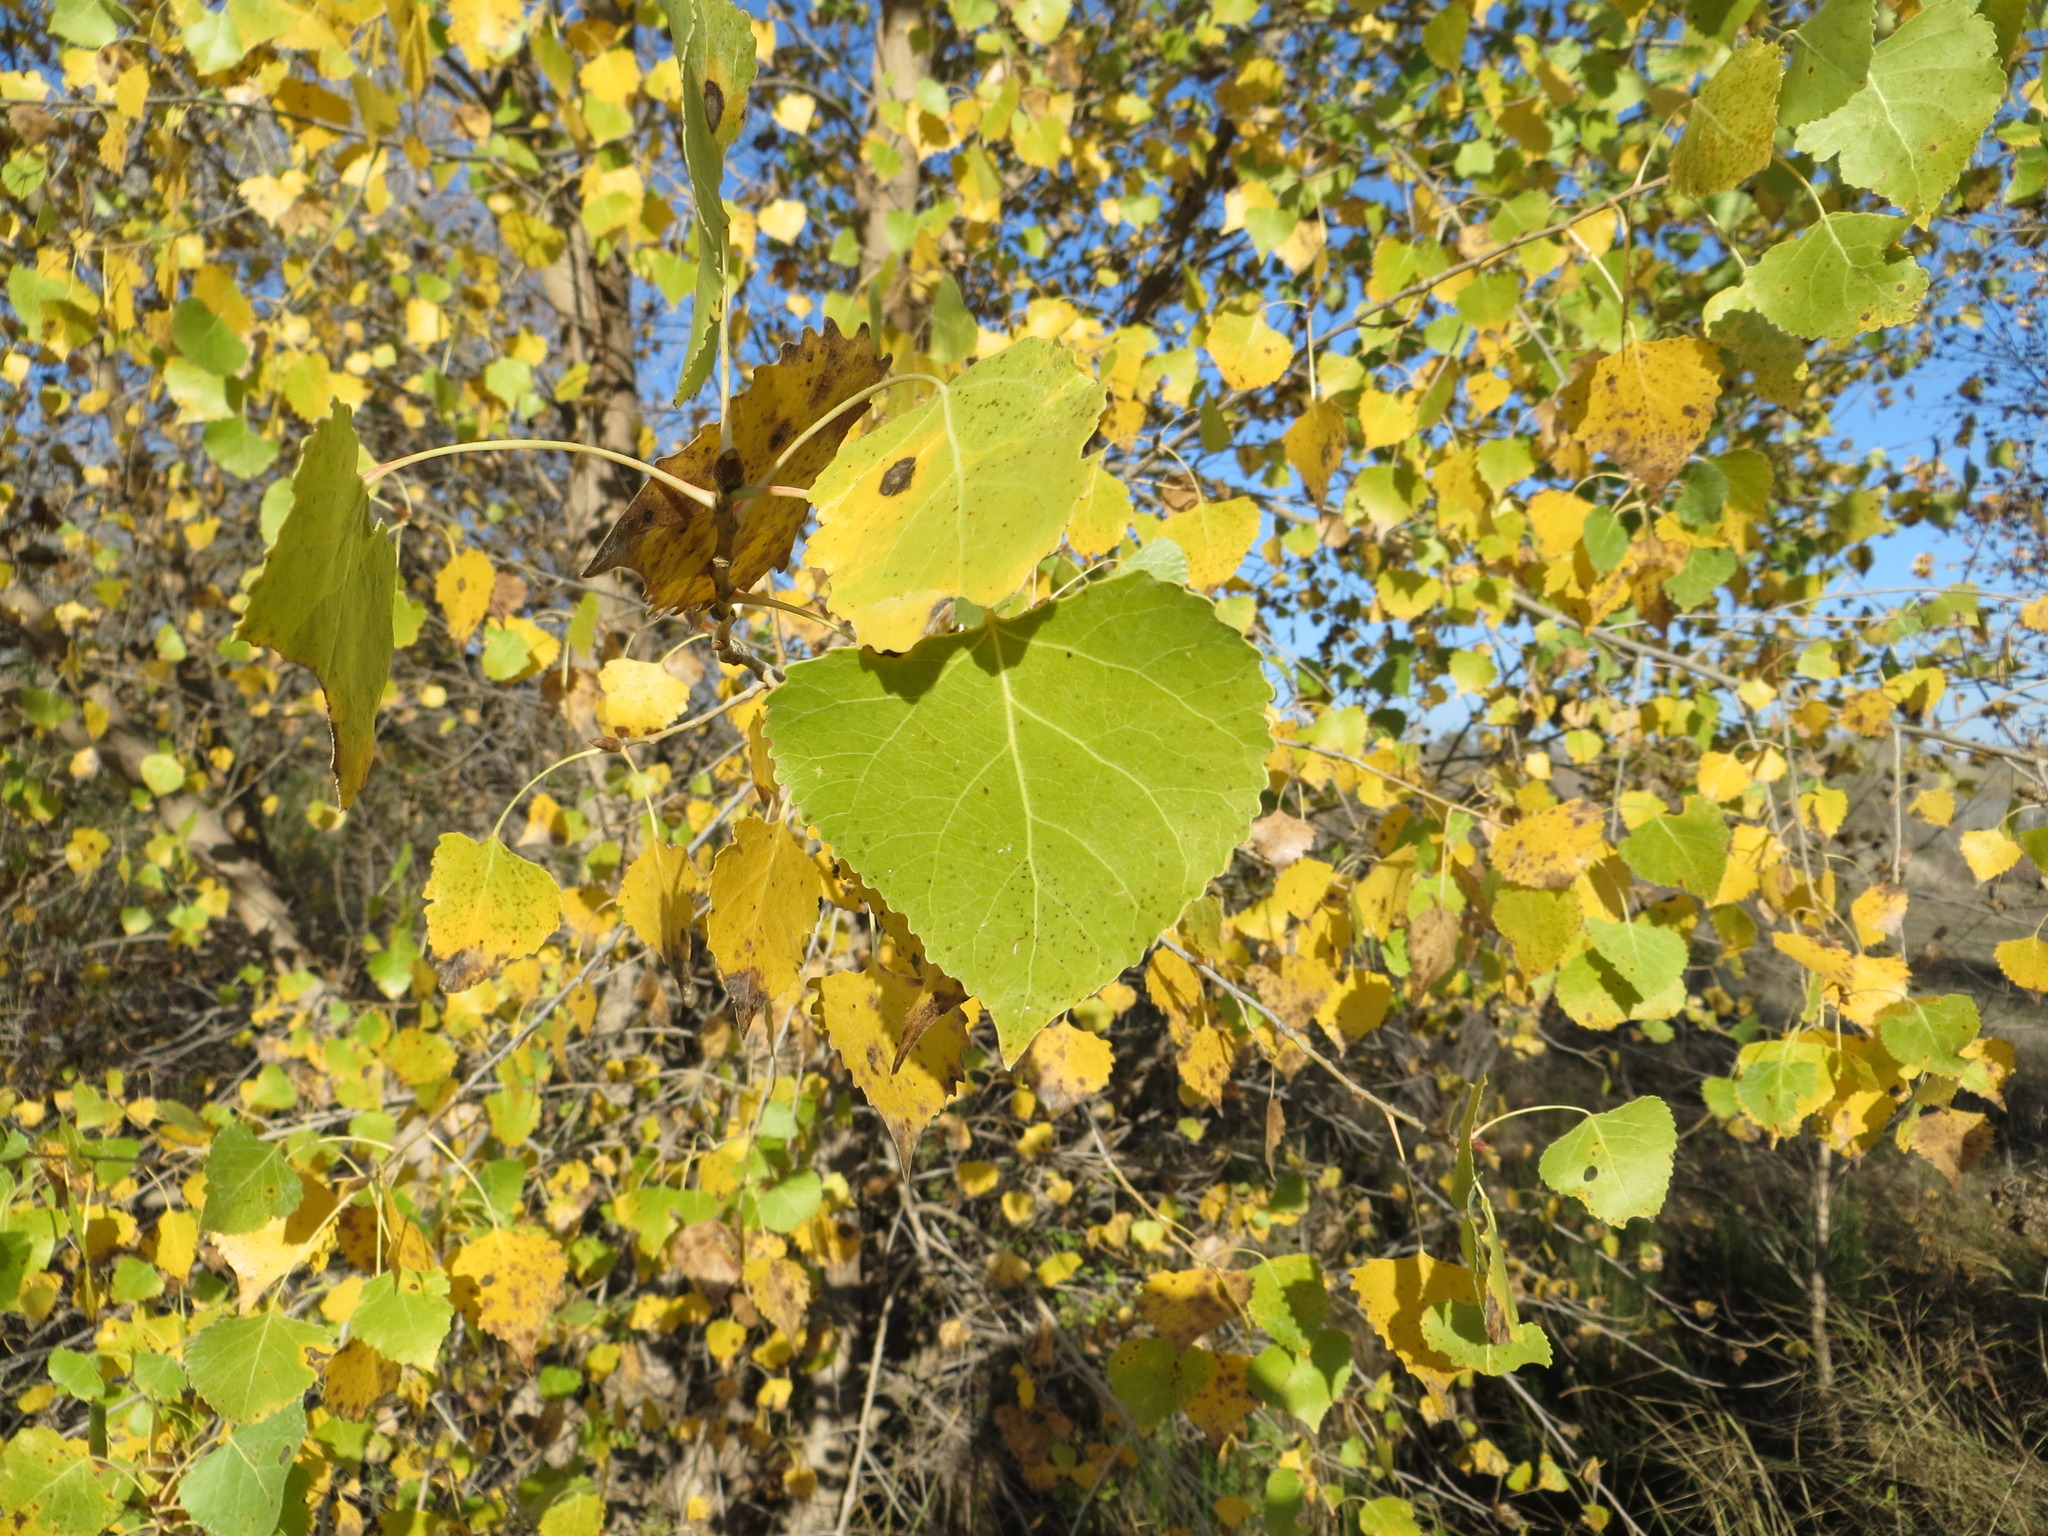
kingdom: Plantae
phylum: Tracheophyta
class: Magnoliopsida
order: Malpighiales
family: Salicaceae
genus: Populus
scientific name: Populus fremontii
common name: Fremont's cottonwood
